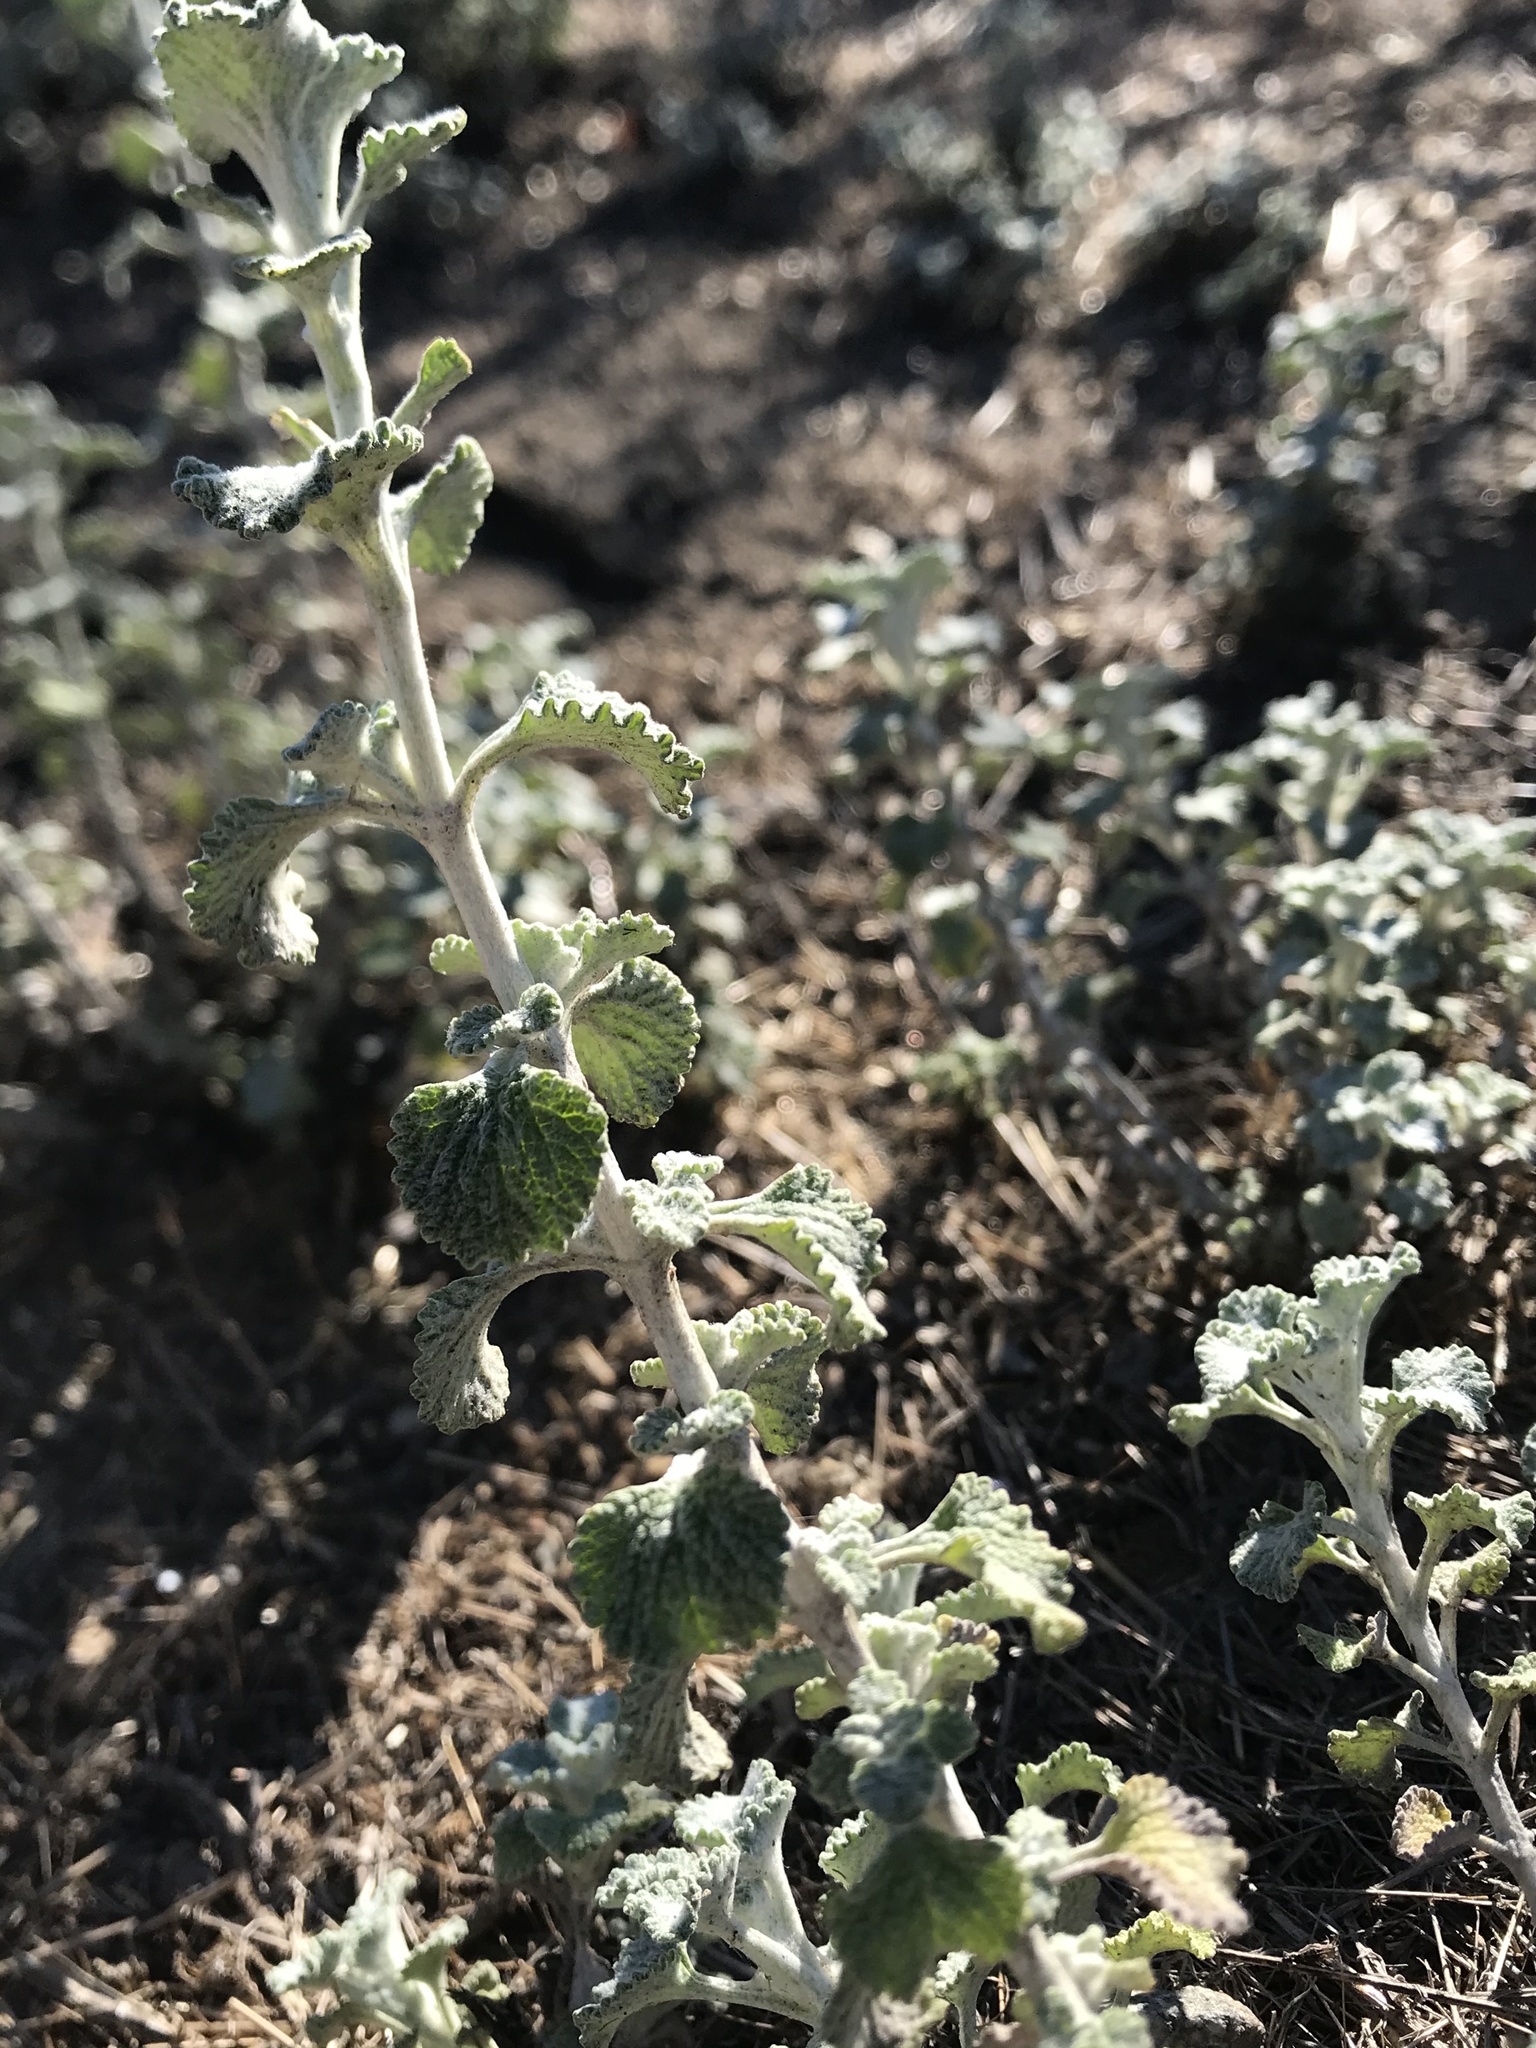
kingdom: Plantae
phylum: Tracheophyta
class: Magnoliopsida
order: Lamiales
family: Lamiaceae
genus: Marrubium
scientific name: Marrubium vulgare
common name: Horehound
